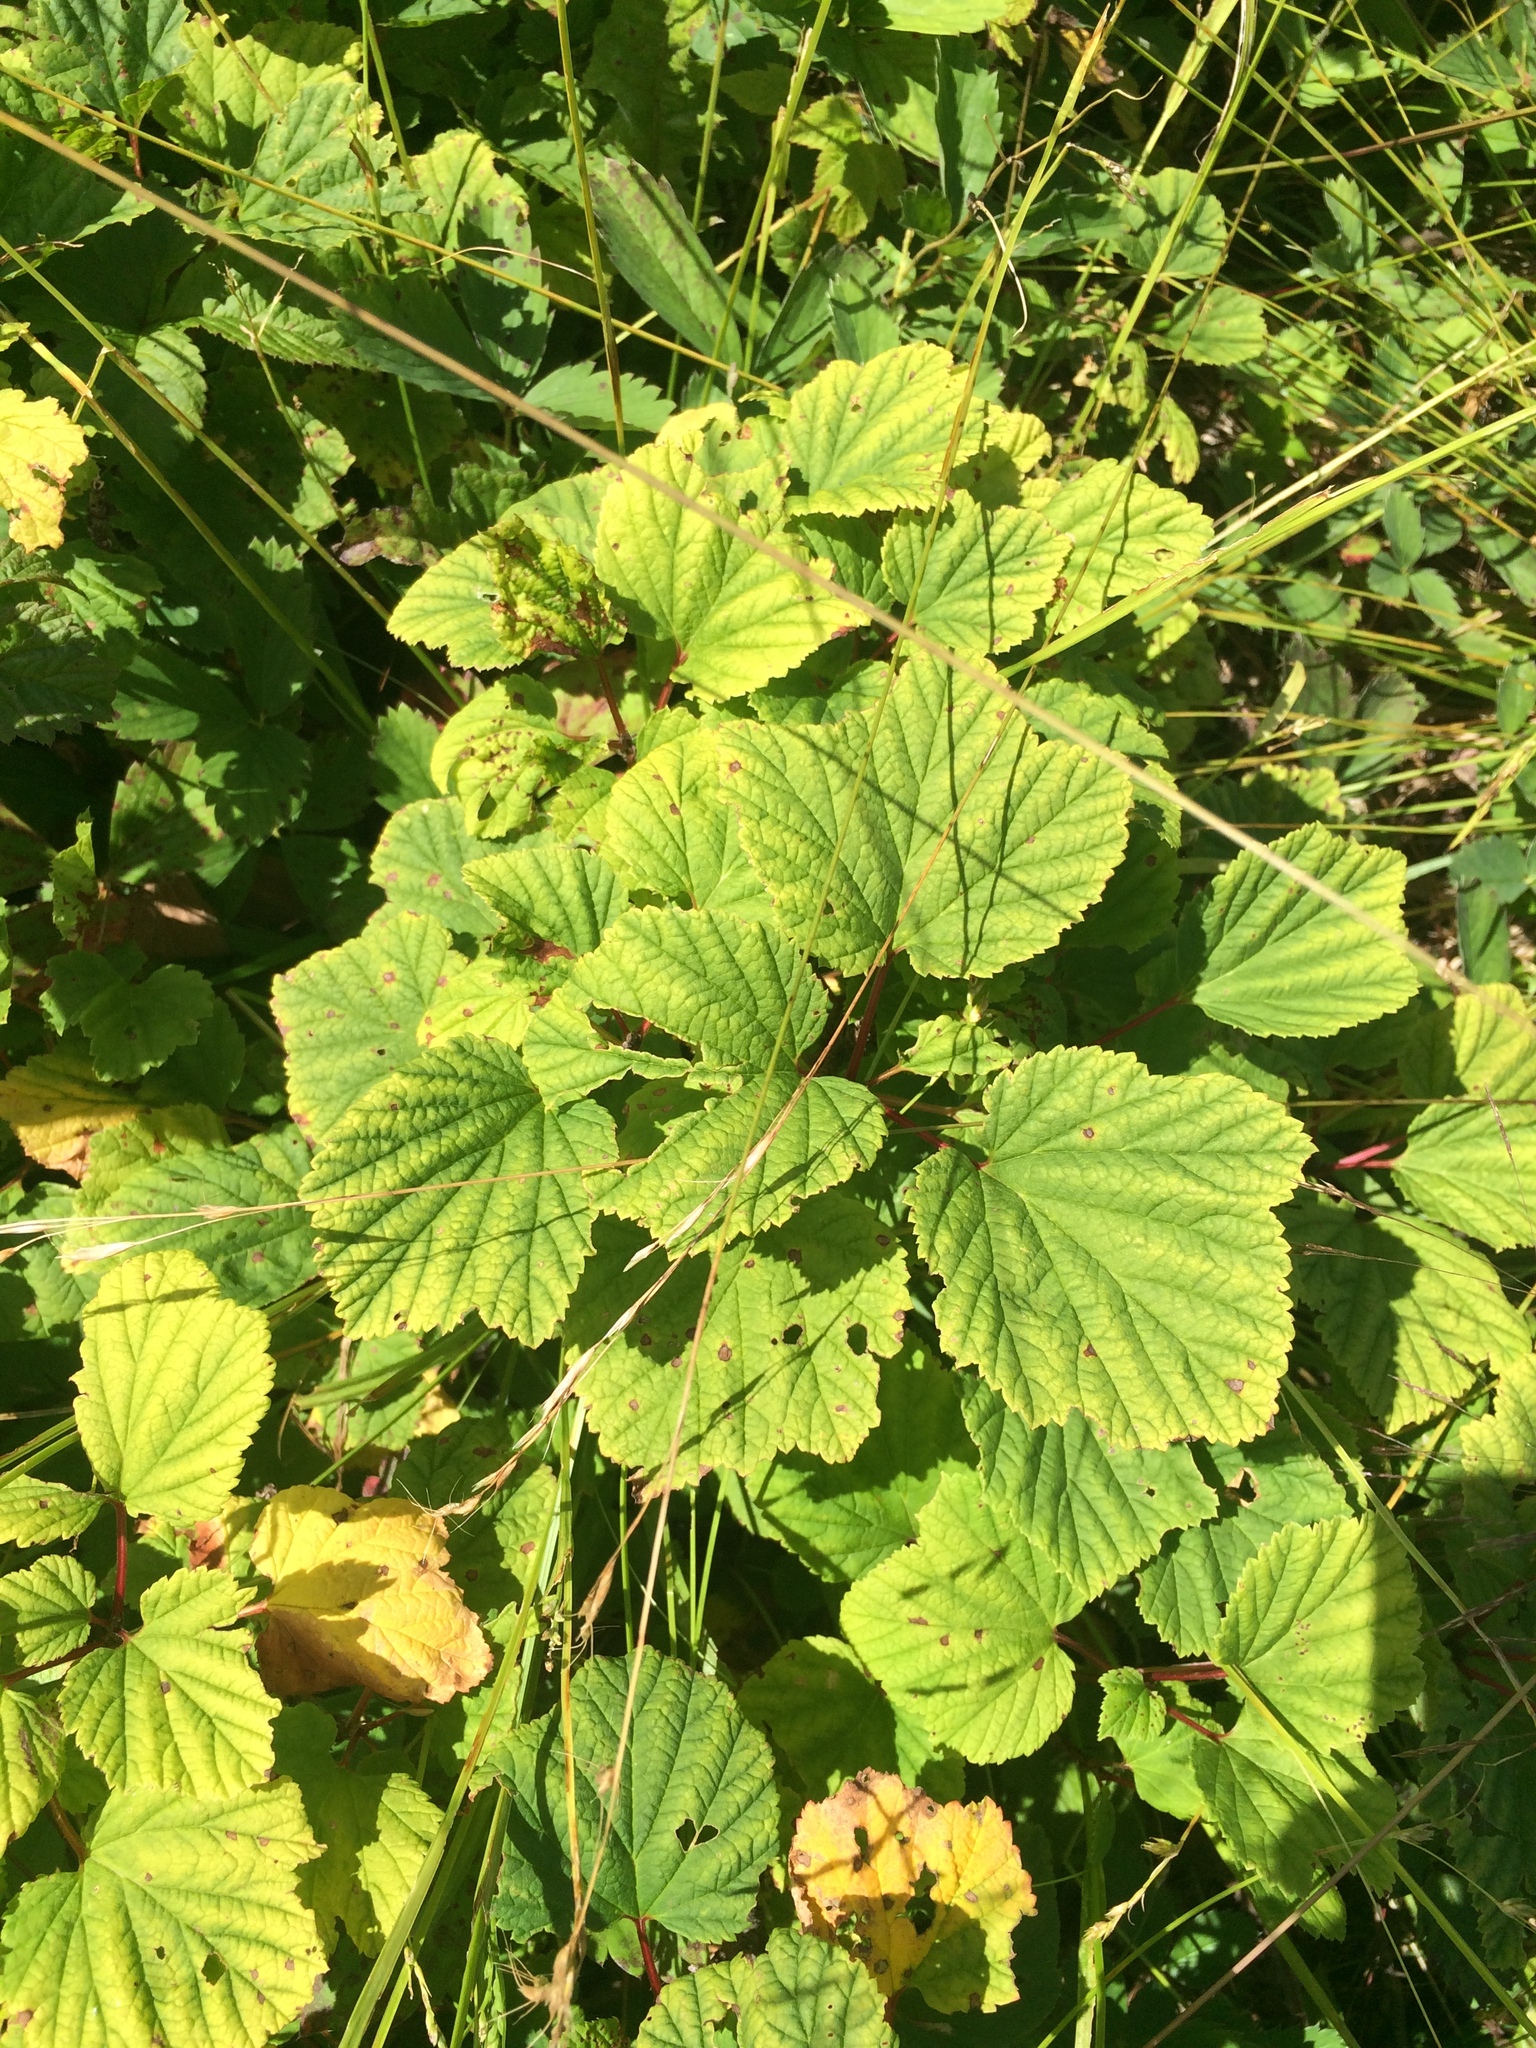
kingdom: Plantae
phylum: Tracheophyta
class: Magnoliopsida
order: Saxifragales
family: Grossulariaceae
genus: Ribes
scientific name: Ribes triste
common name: Swamp red currant
